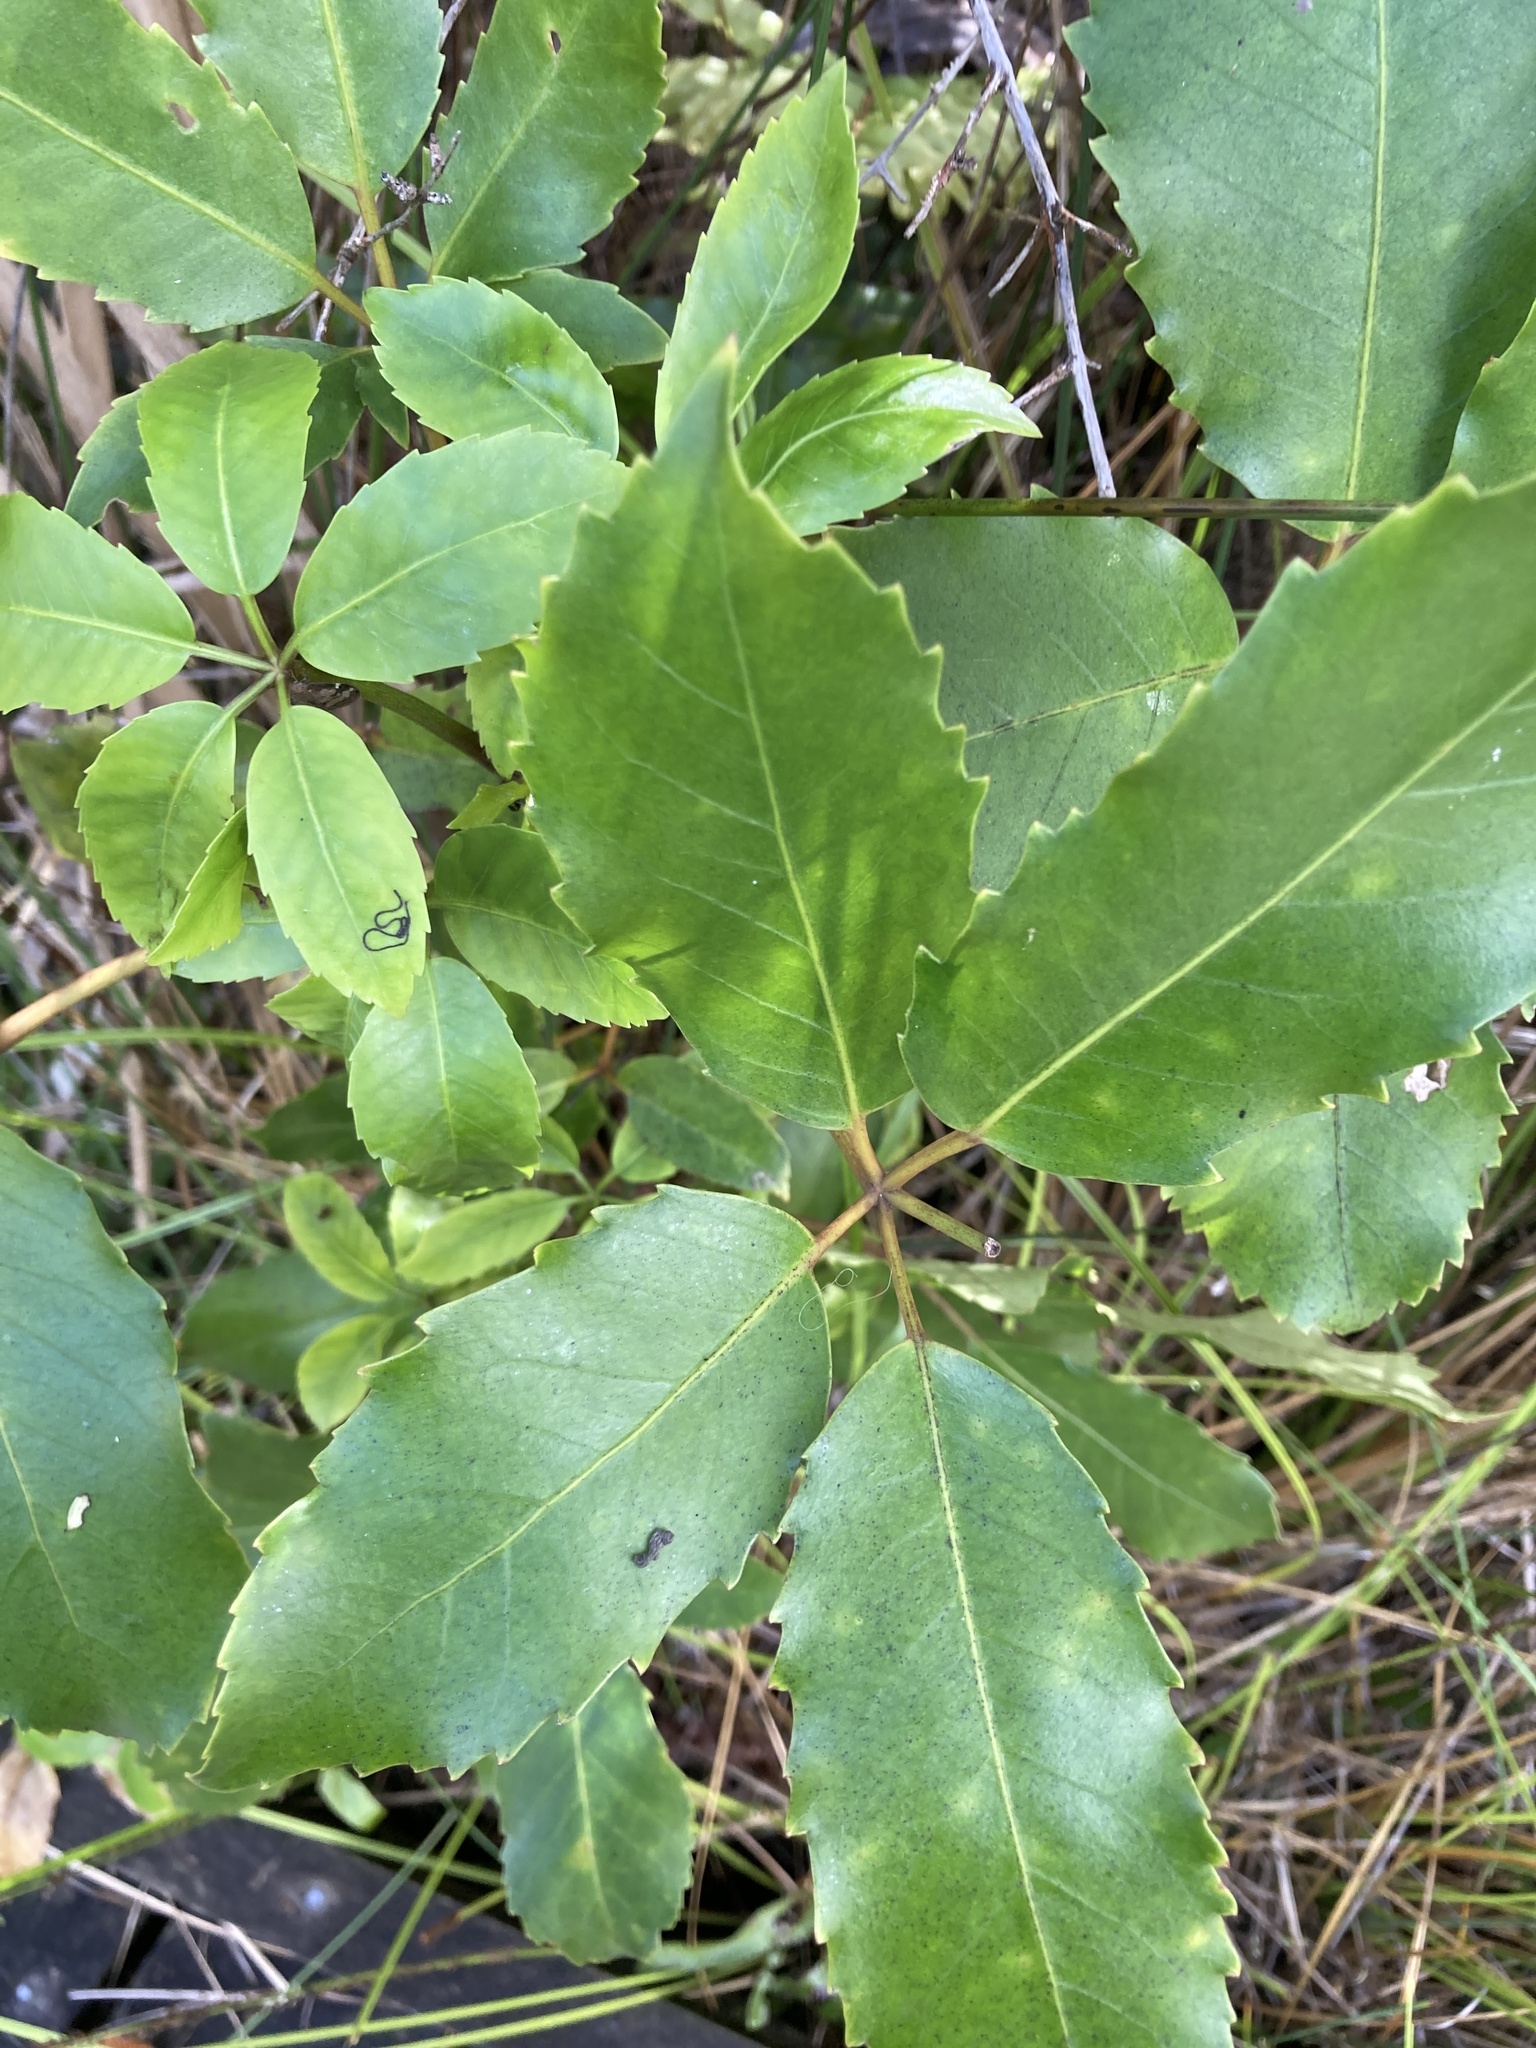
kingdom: Plantae
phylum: Tracheophyta
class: Magnoliopsida
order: Apiales
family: Araliaceae
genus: Neopanax
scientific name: Neopanax arboreus
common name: Five-fingers
